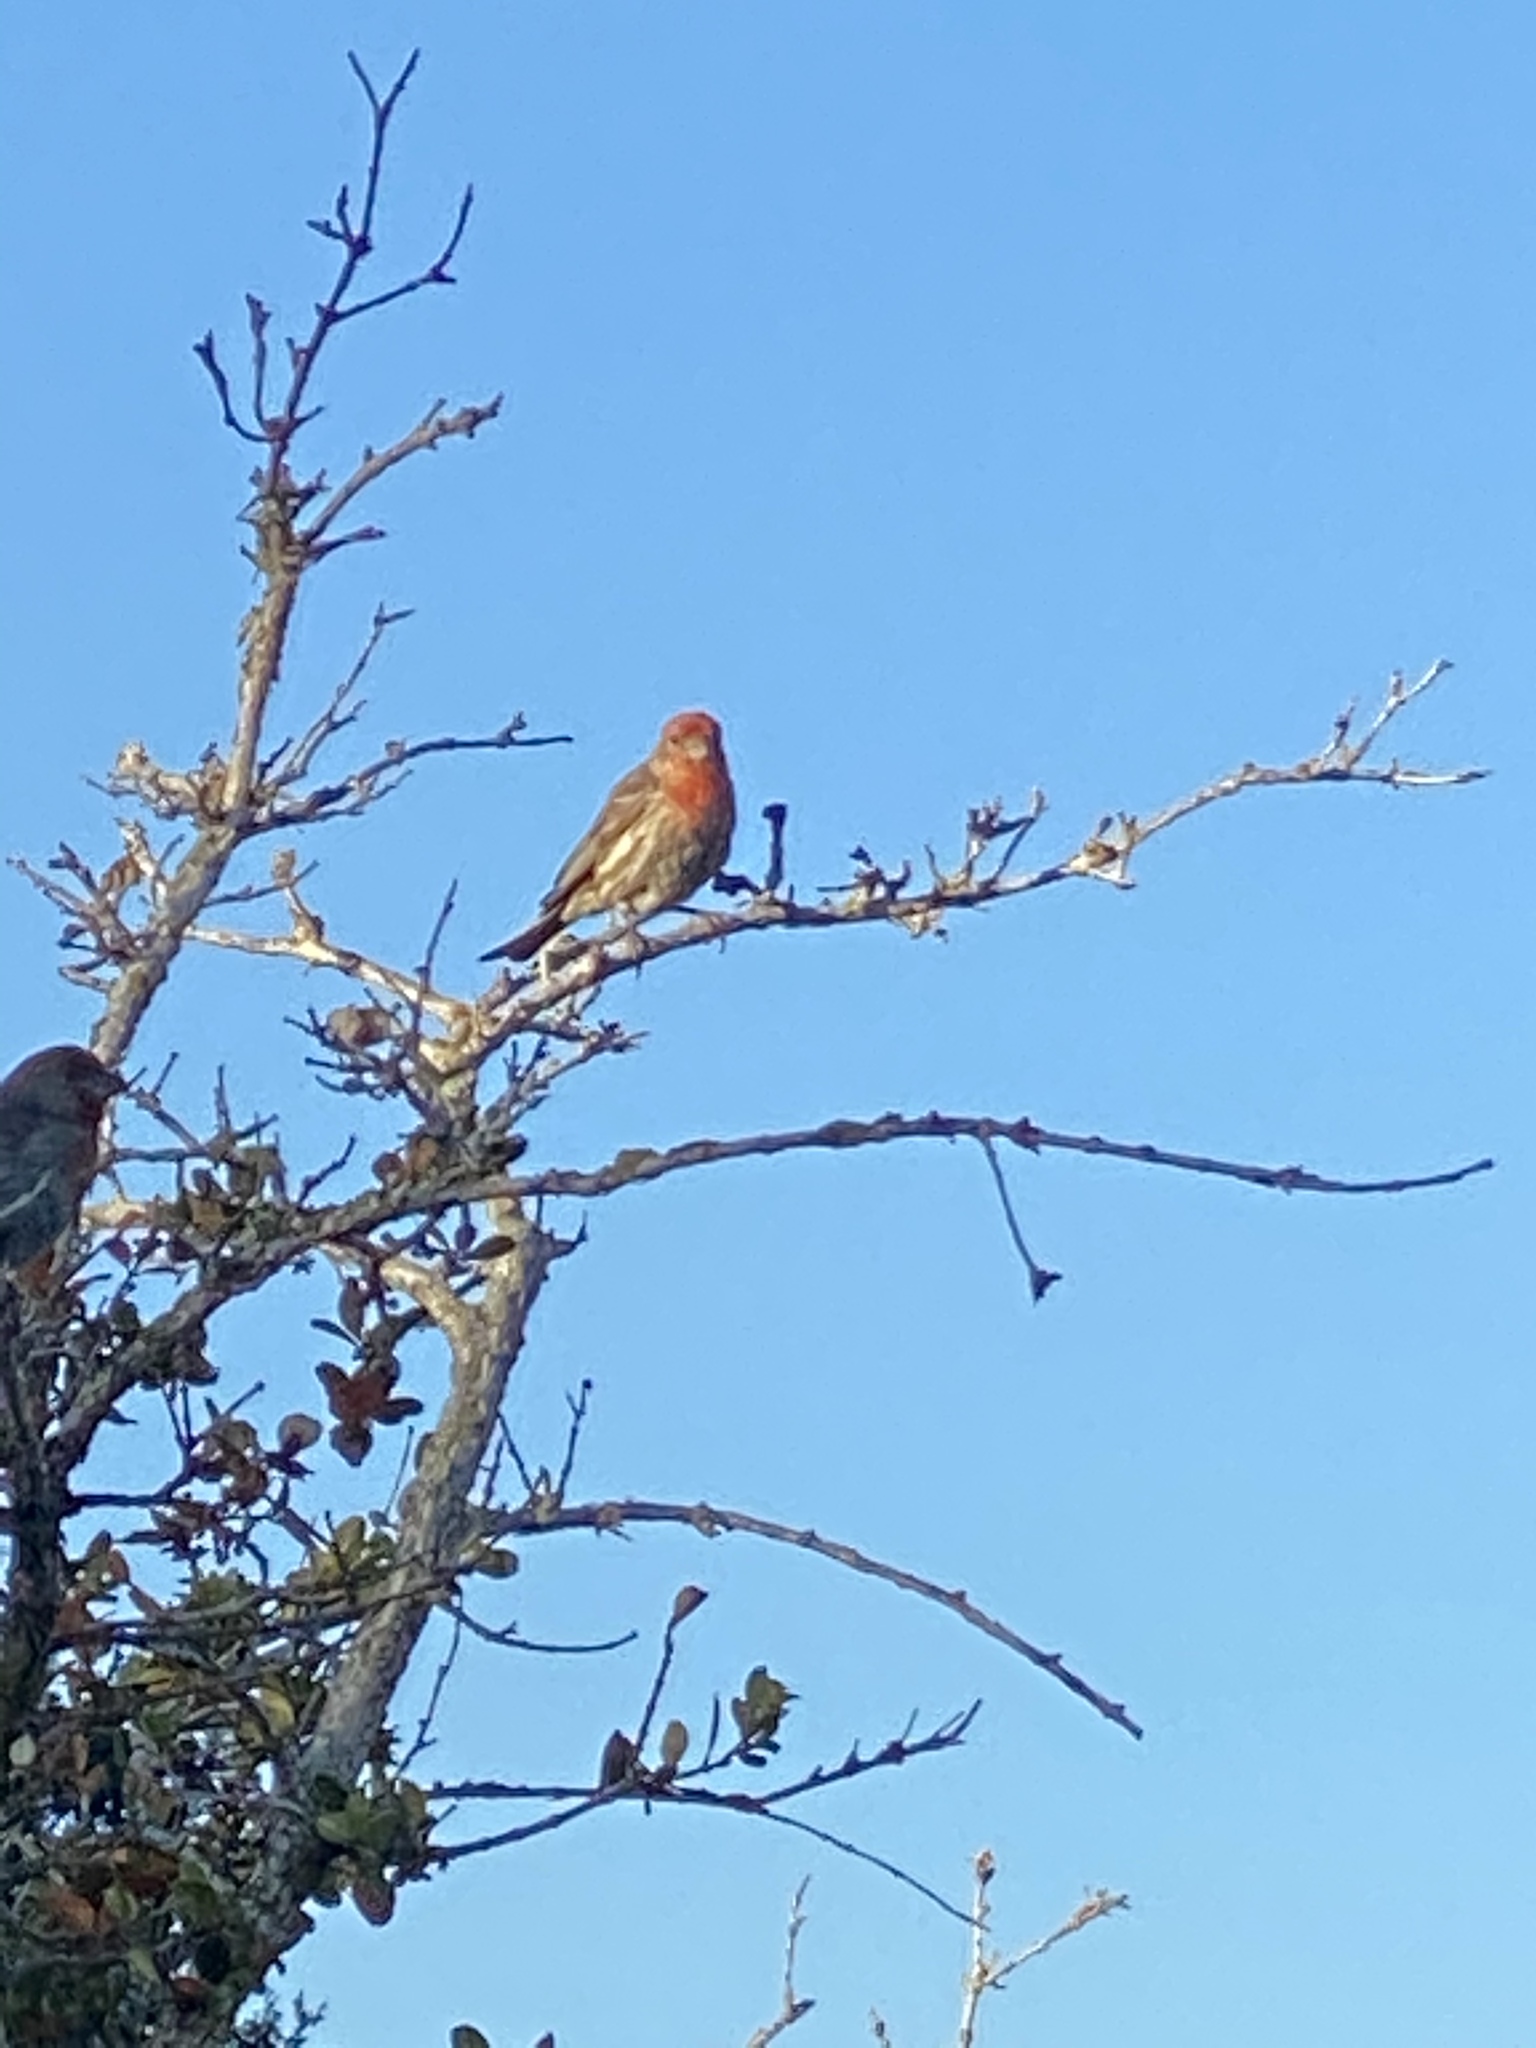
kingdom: Animalia
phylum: Chordata
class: Aves
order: Passeriformes
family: Fringillidae
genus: Haemorhous
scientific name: Haemorhous mexicanus
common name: House finch
